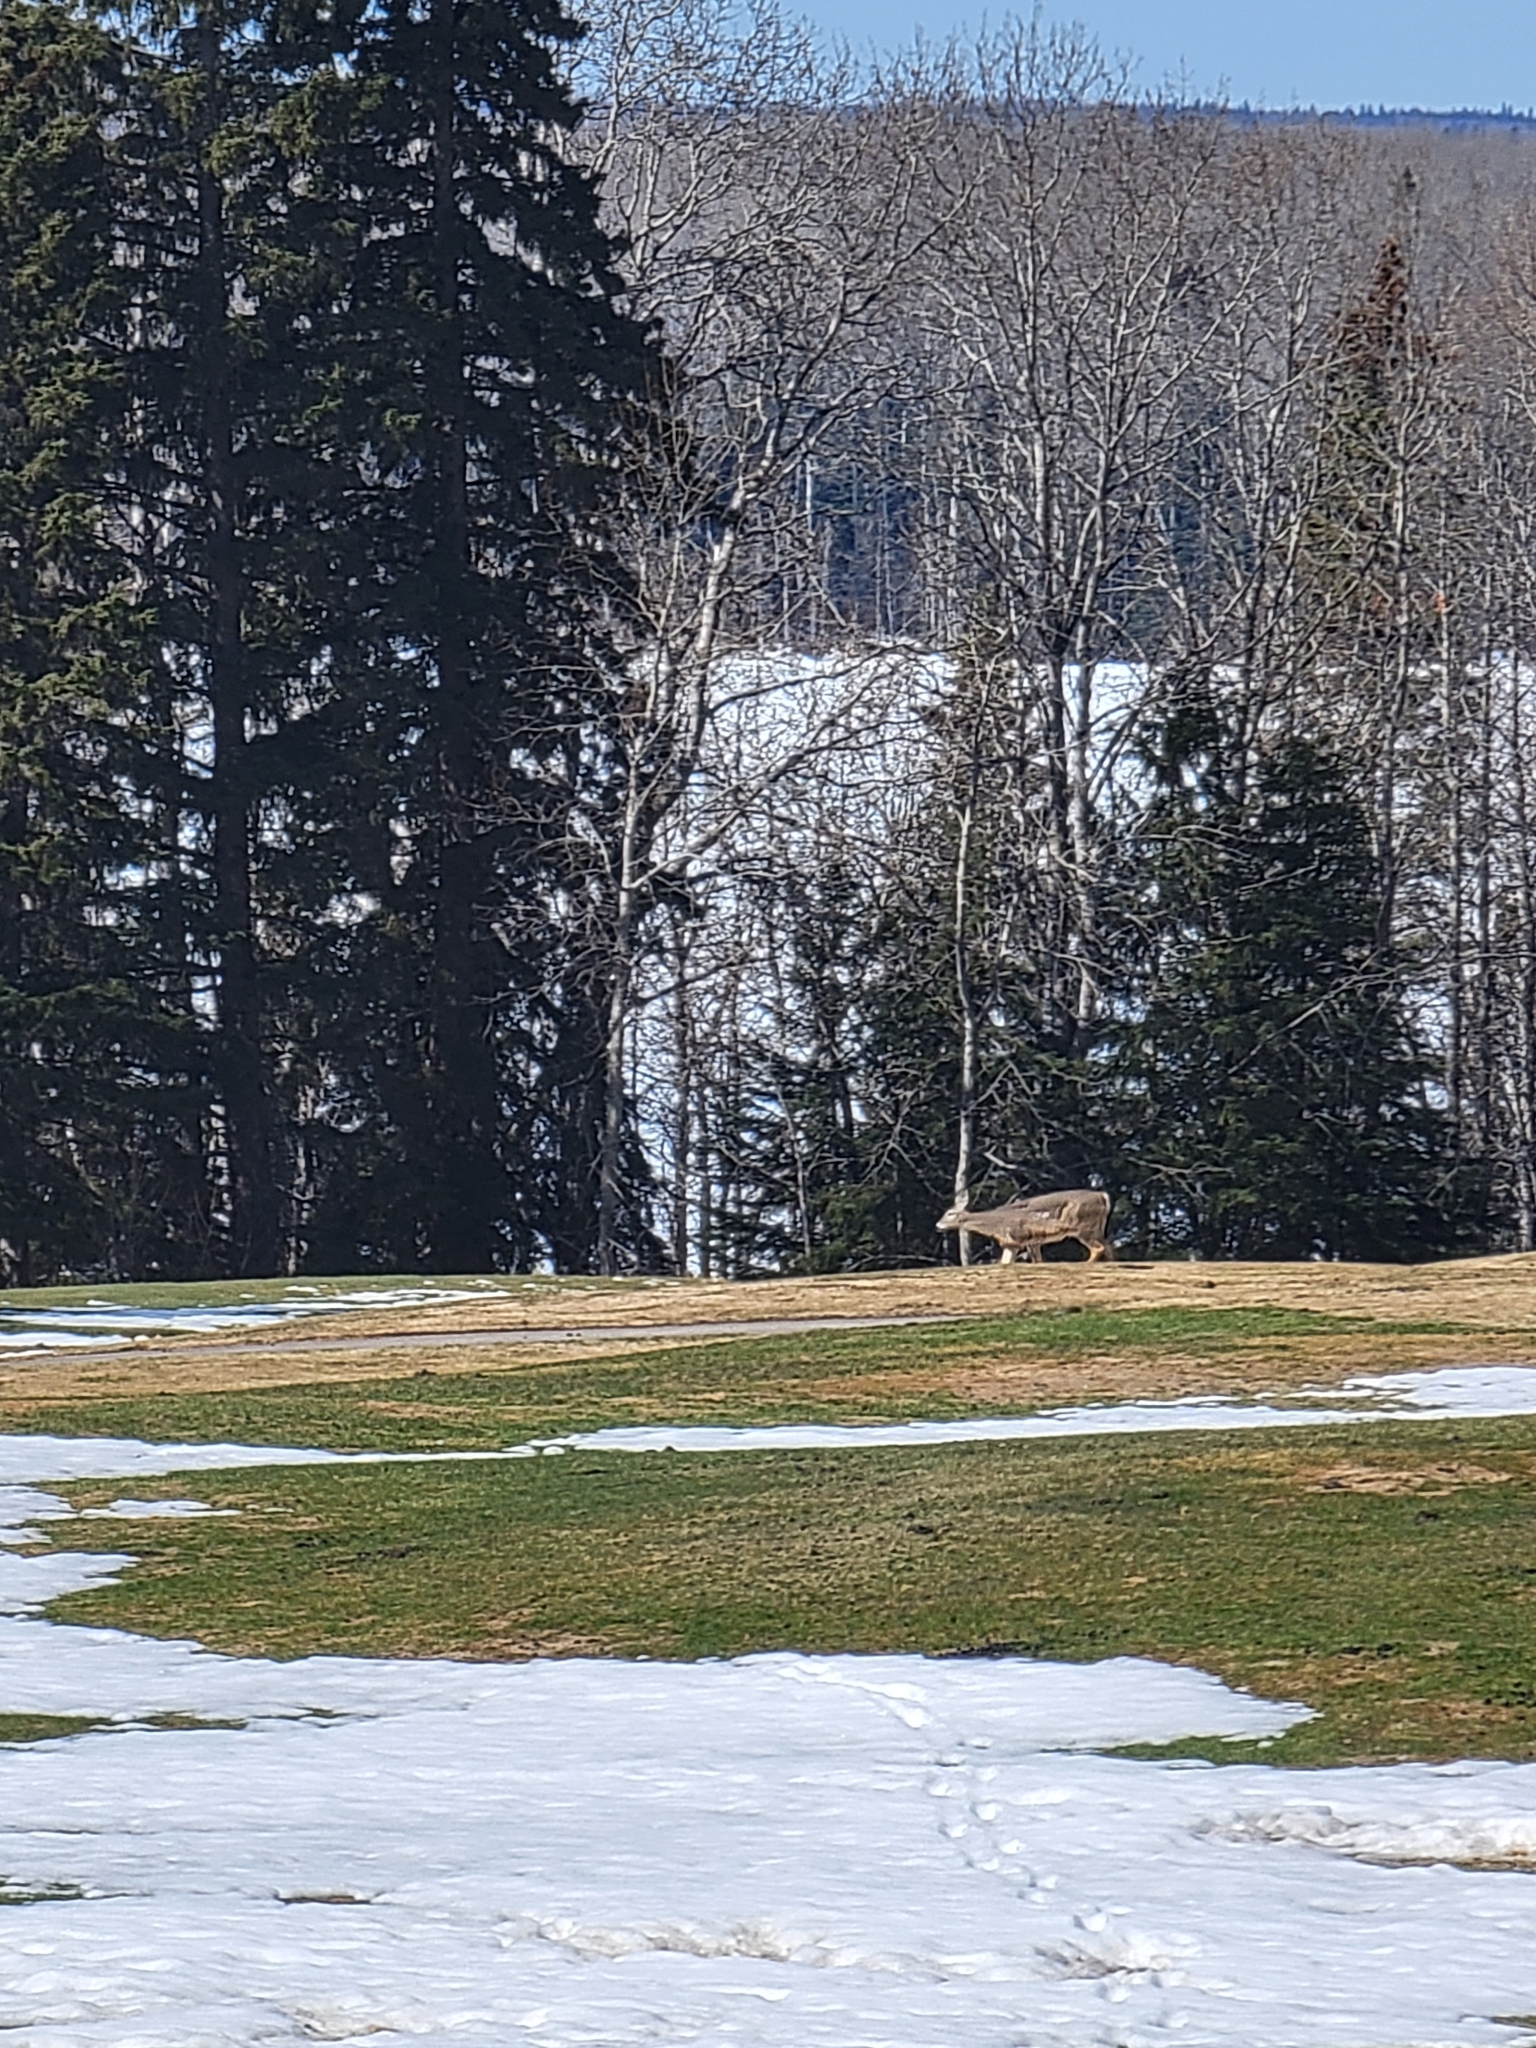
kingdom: Animalia
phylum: Chordata
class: Mammalia
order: Artiodactyla
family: Cervidae
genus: Odocoileus
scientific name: Odocoileus virginianus
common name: White-tailed deer
